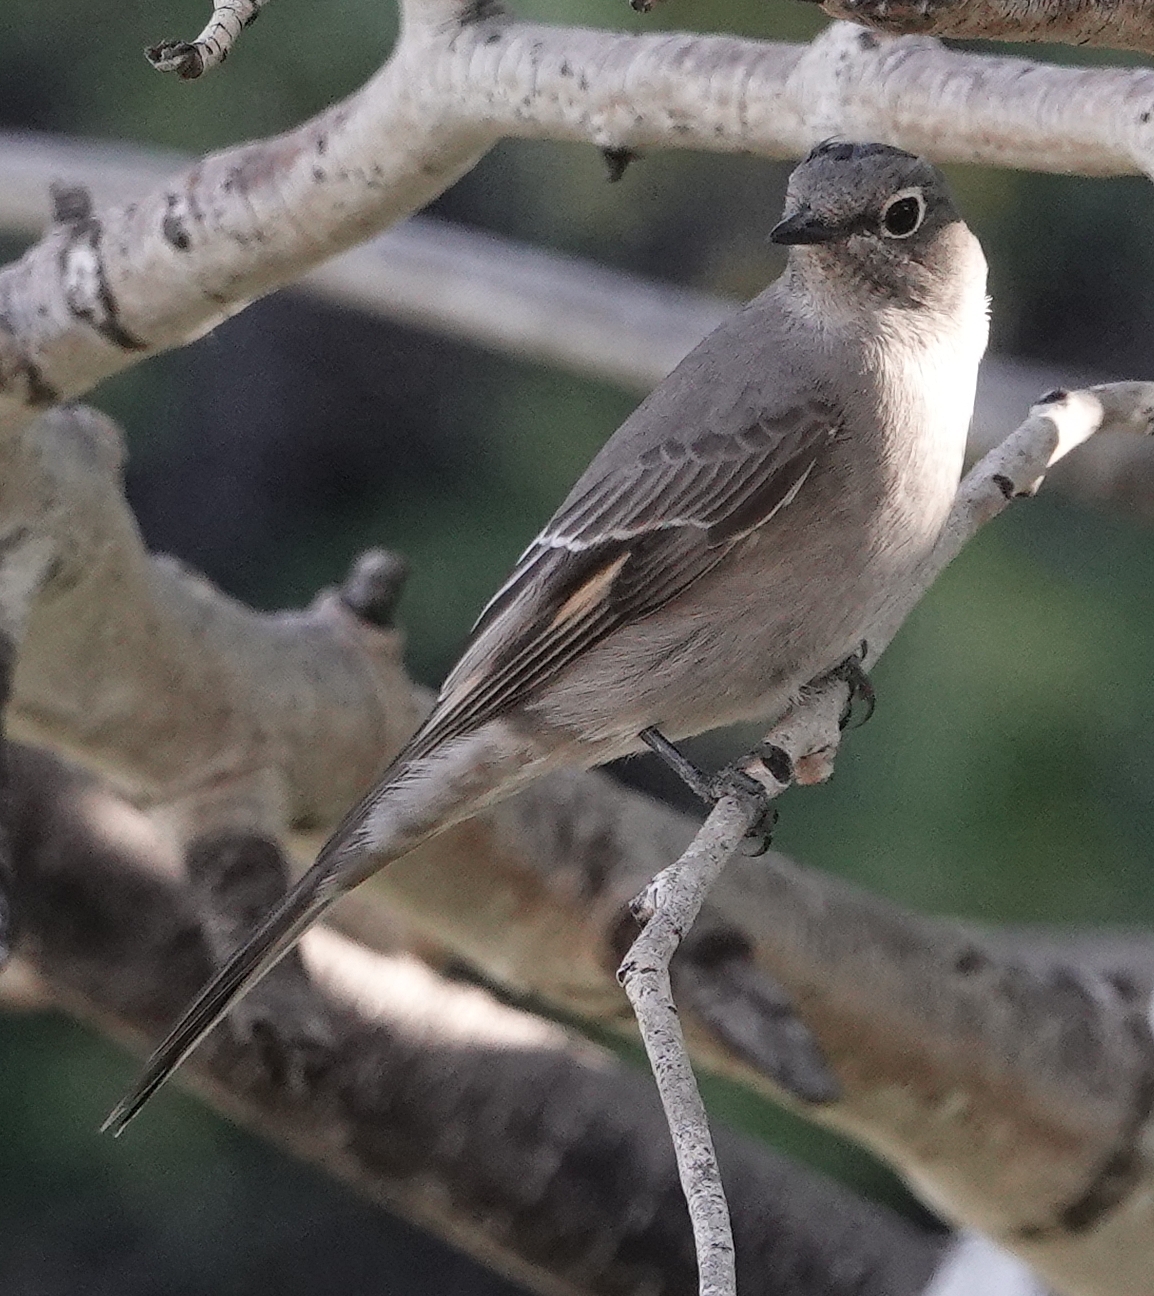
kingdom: Animalia
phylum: Chordata
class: Aves
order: Passeriformes
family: Turdidae
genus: Myadestes
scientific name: Myadestes townsendi
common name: Townsend's solitaire
